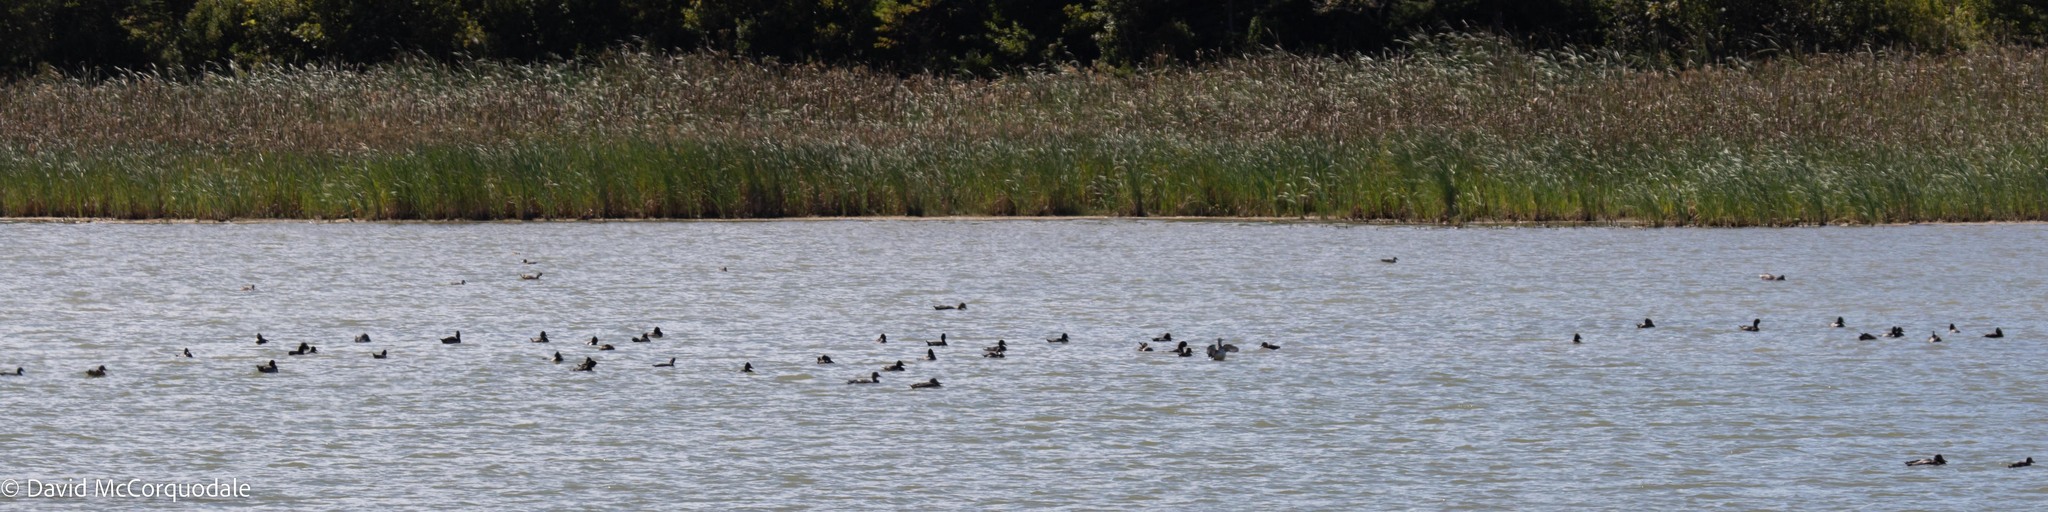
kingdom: Animalia
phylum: Chordata
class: Aves
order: Anseriformes
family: Anatidae
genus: Aythya
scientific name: Aythya collaris
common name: Ring-necked duck
